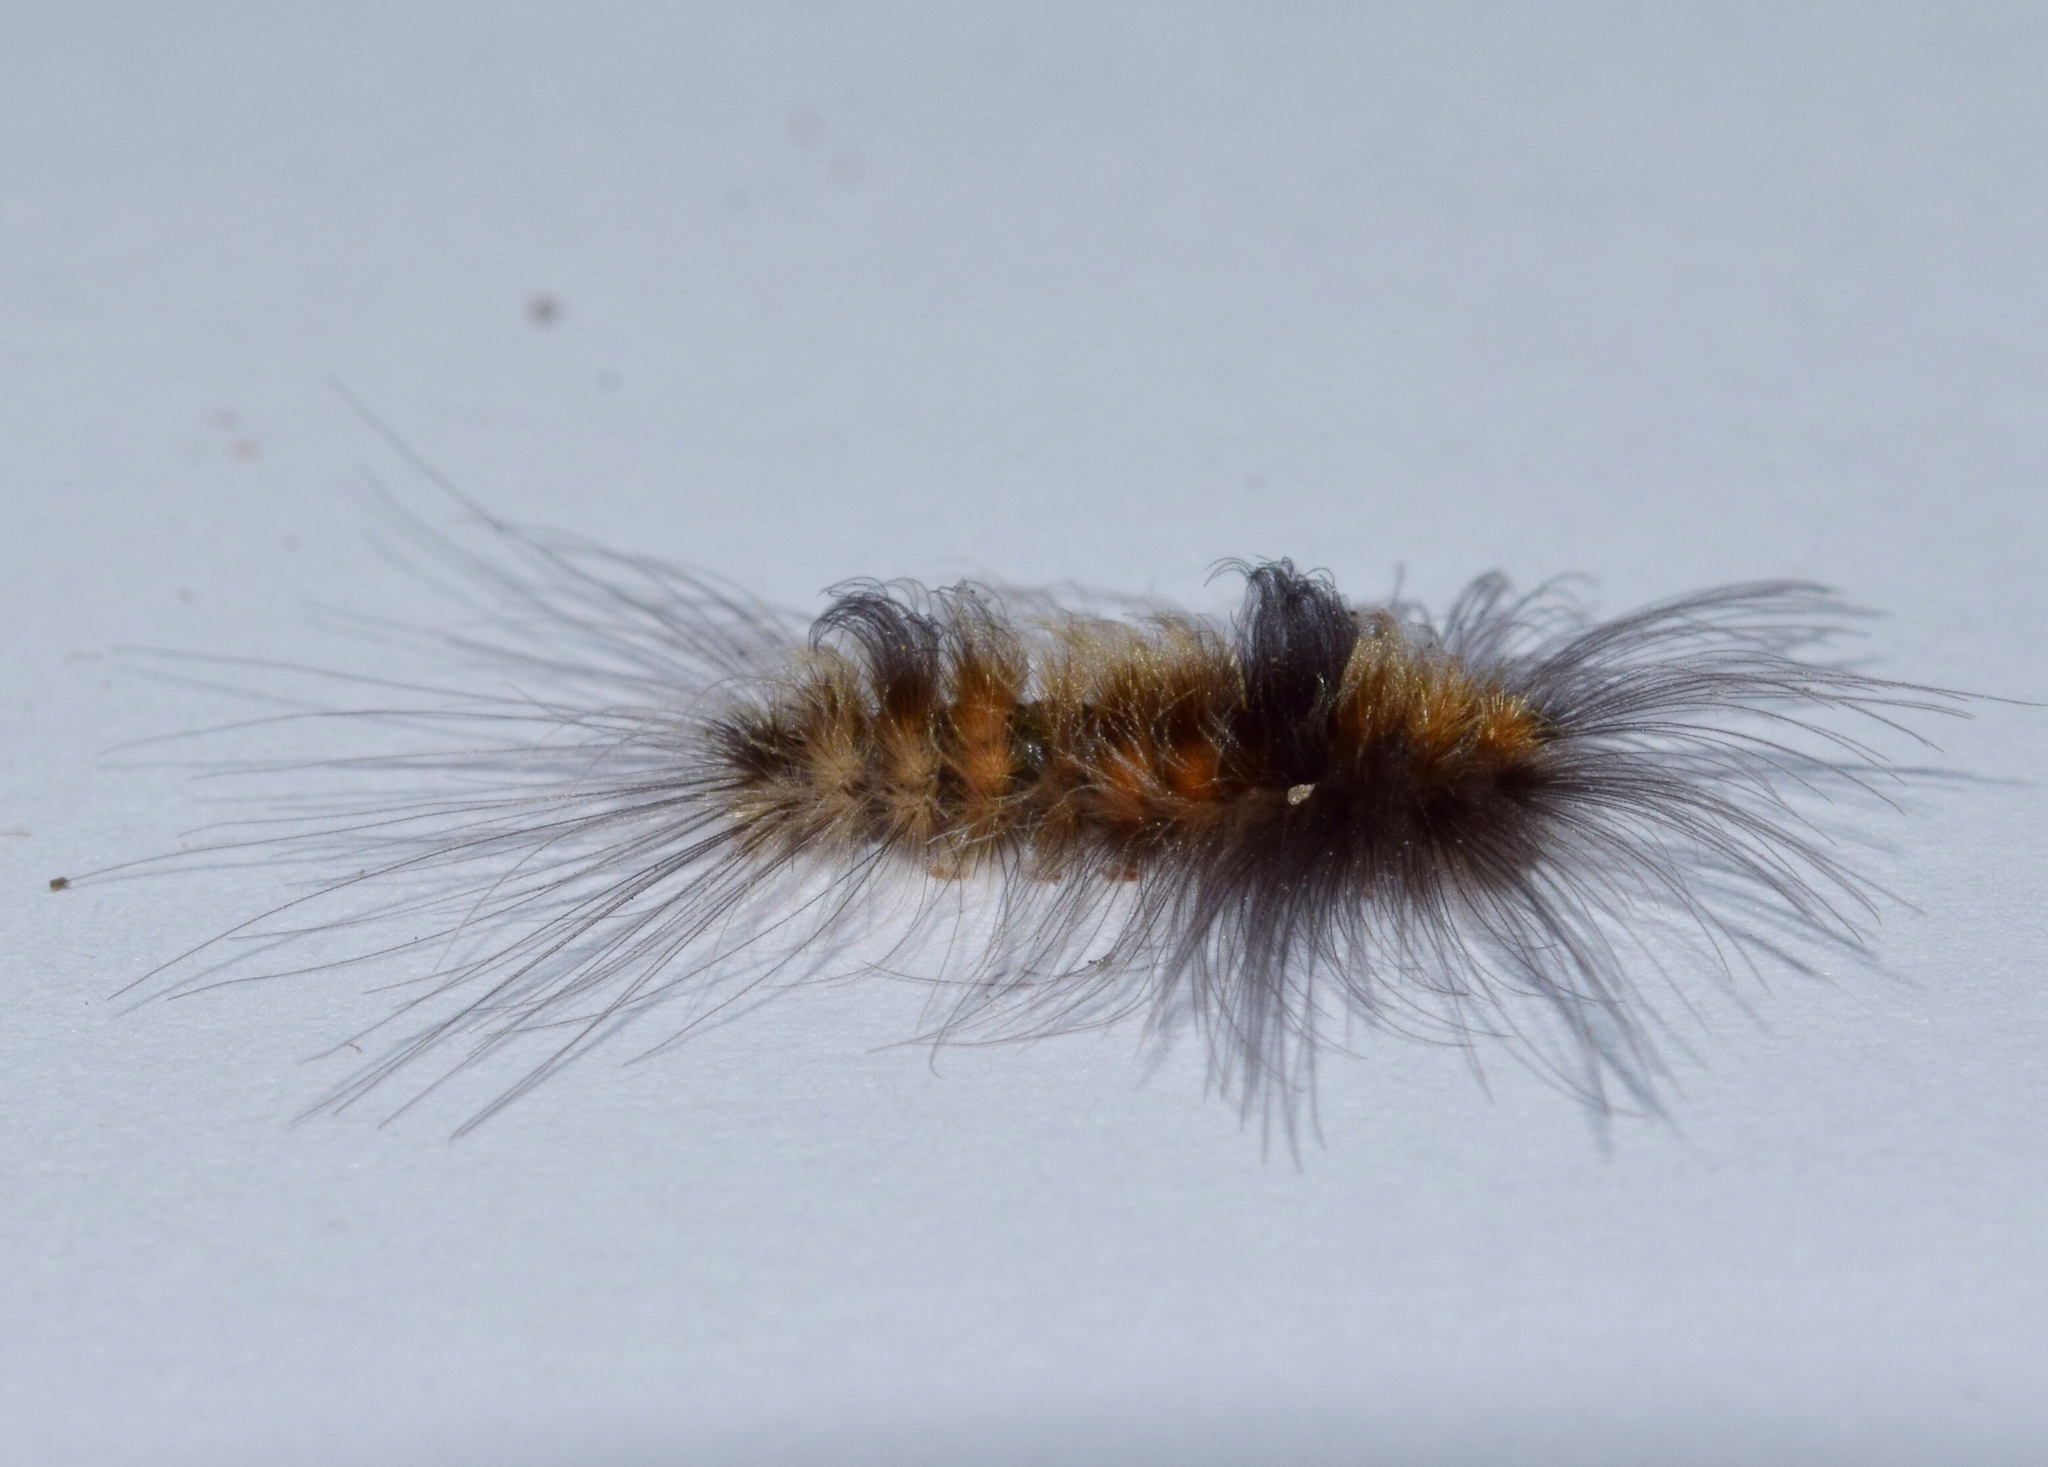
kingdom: Animalia
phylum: Arthropoda
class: Insecta
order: Lepidoptera
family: Erebidae
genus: Tumicla
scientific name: Tumicla sagenaria
